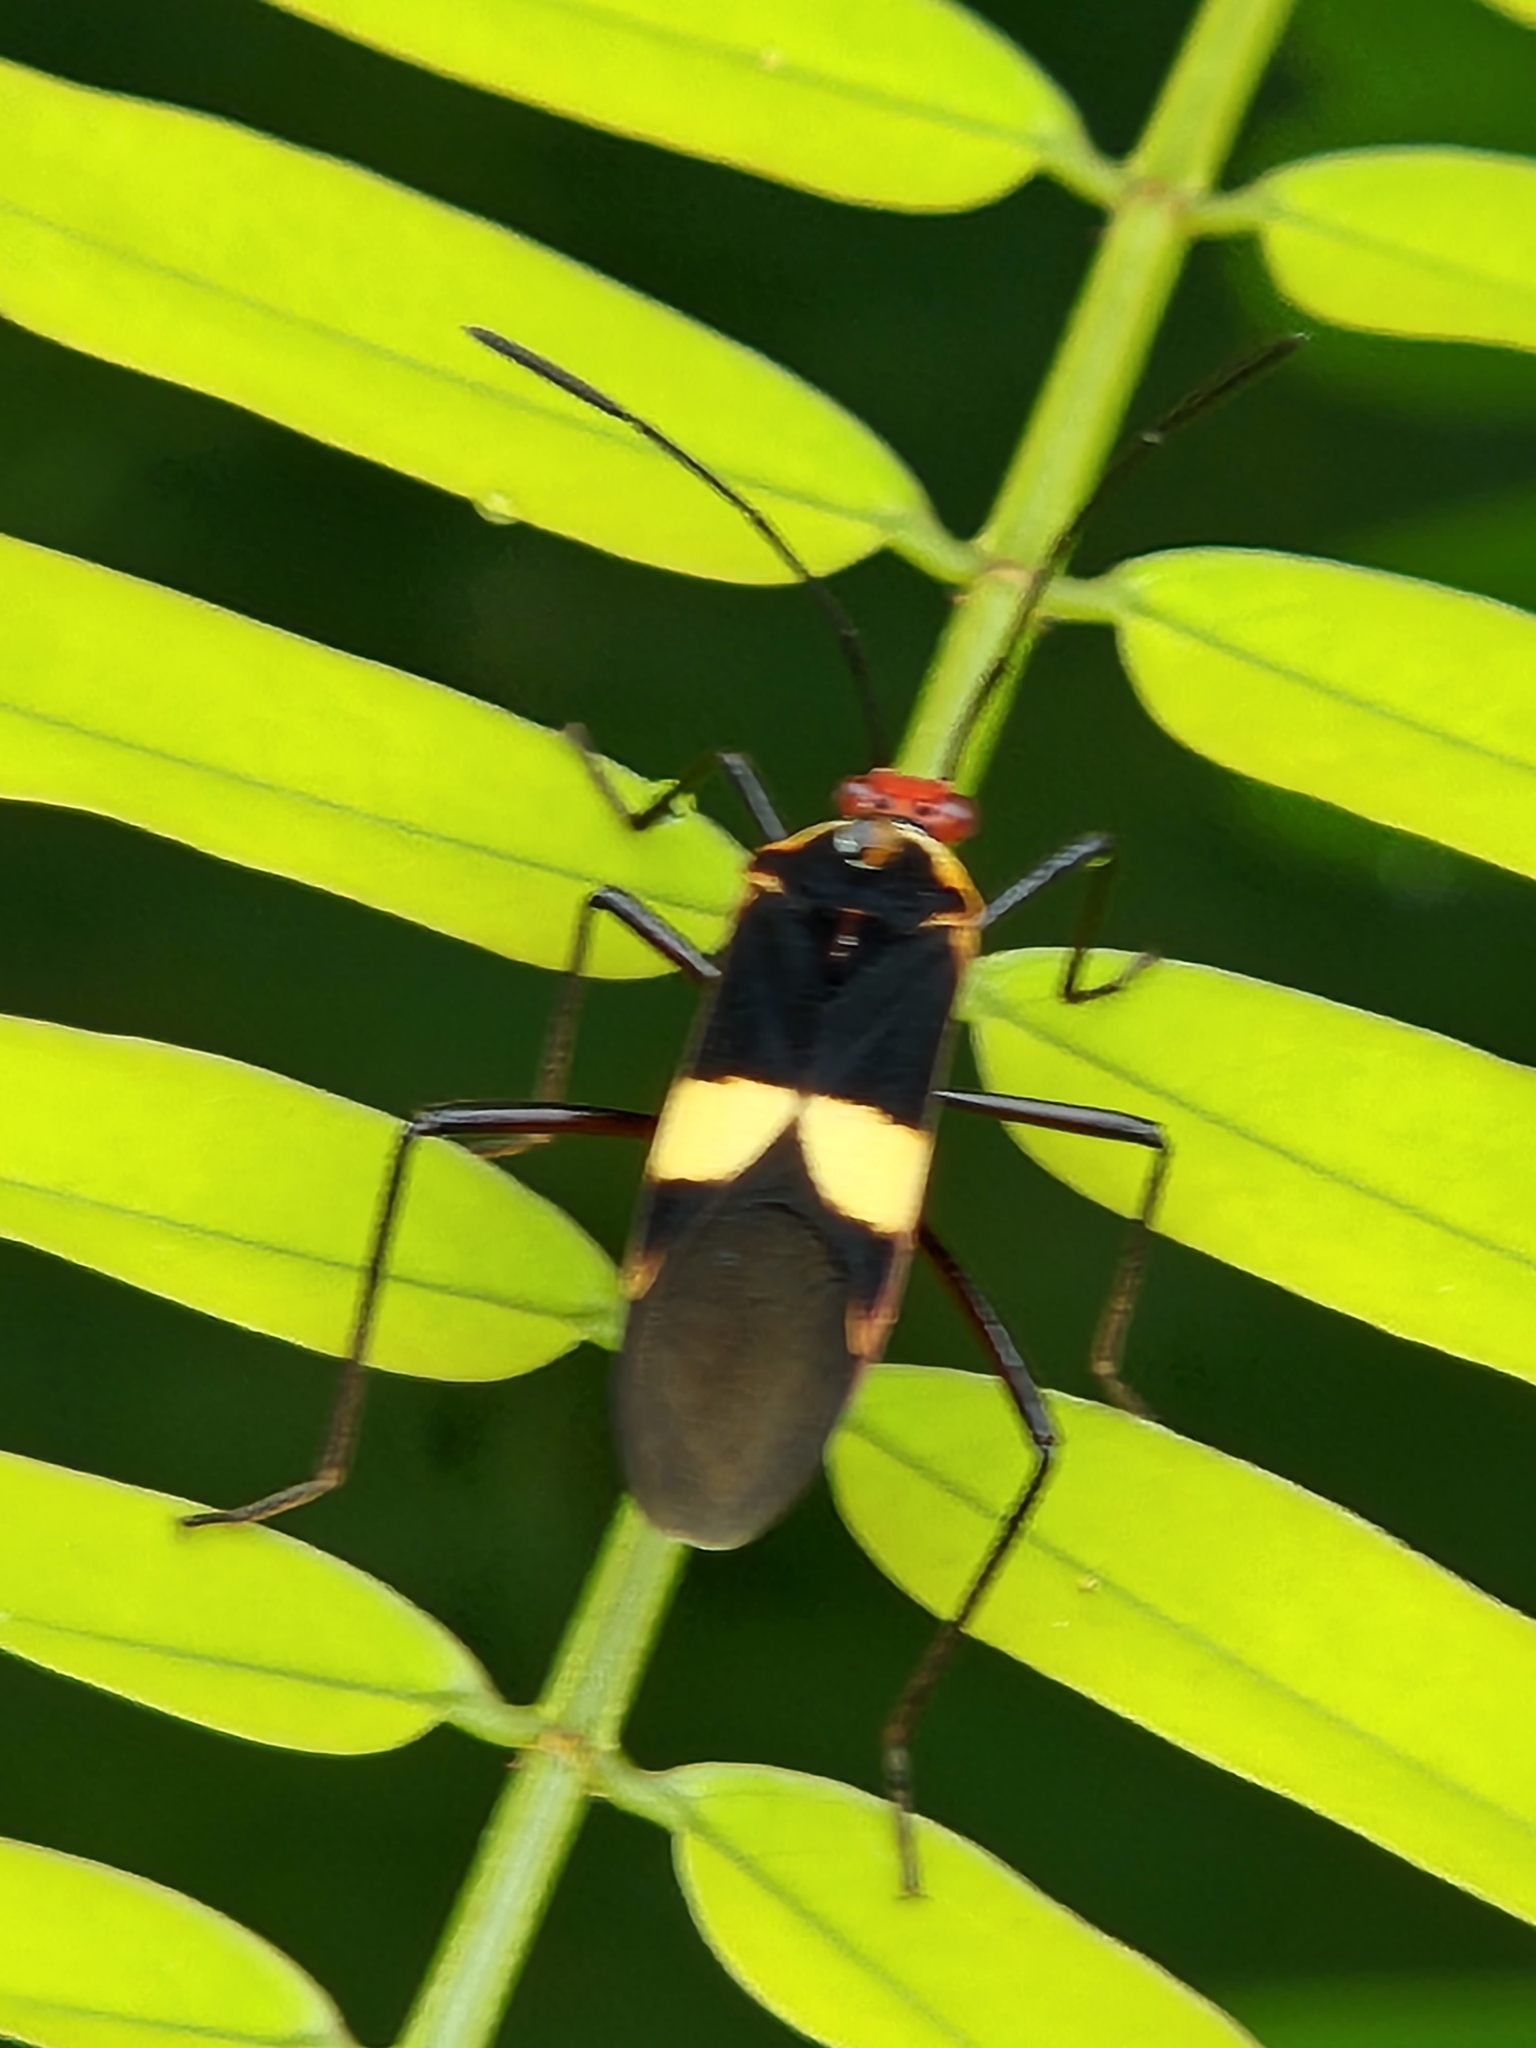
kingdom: Animalia
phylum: Arthropoda
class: Insecta
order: Hemiptera
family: Coreidae
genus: Hypselonotus
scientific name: Hypselonotus interruptus
